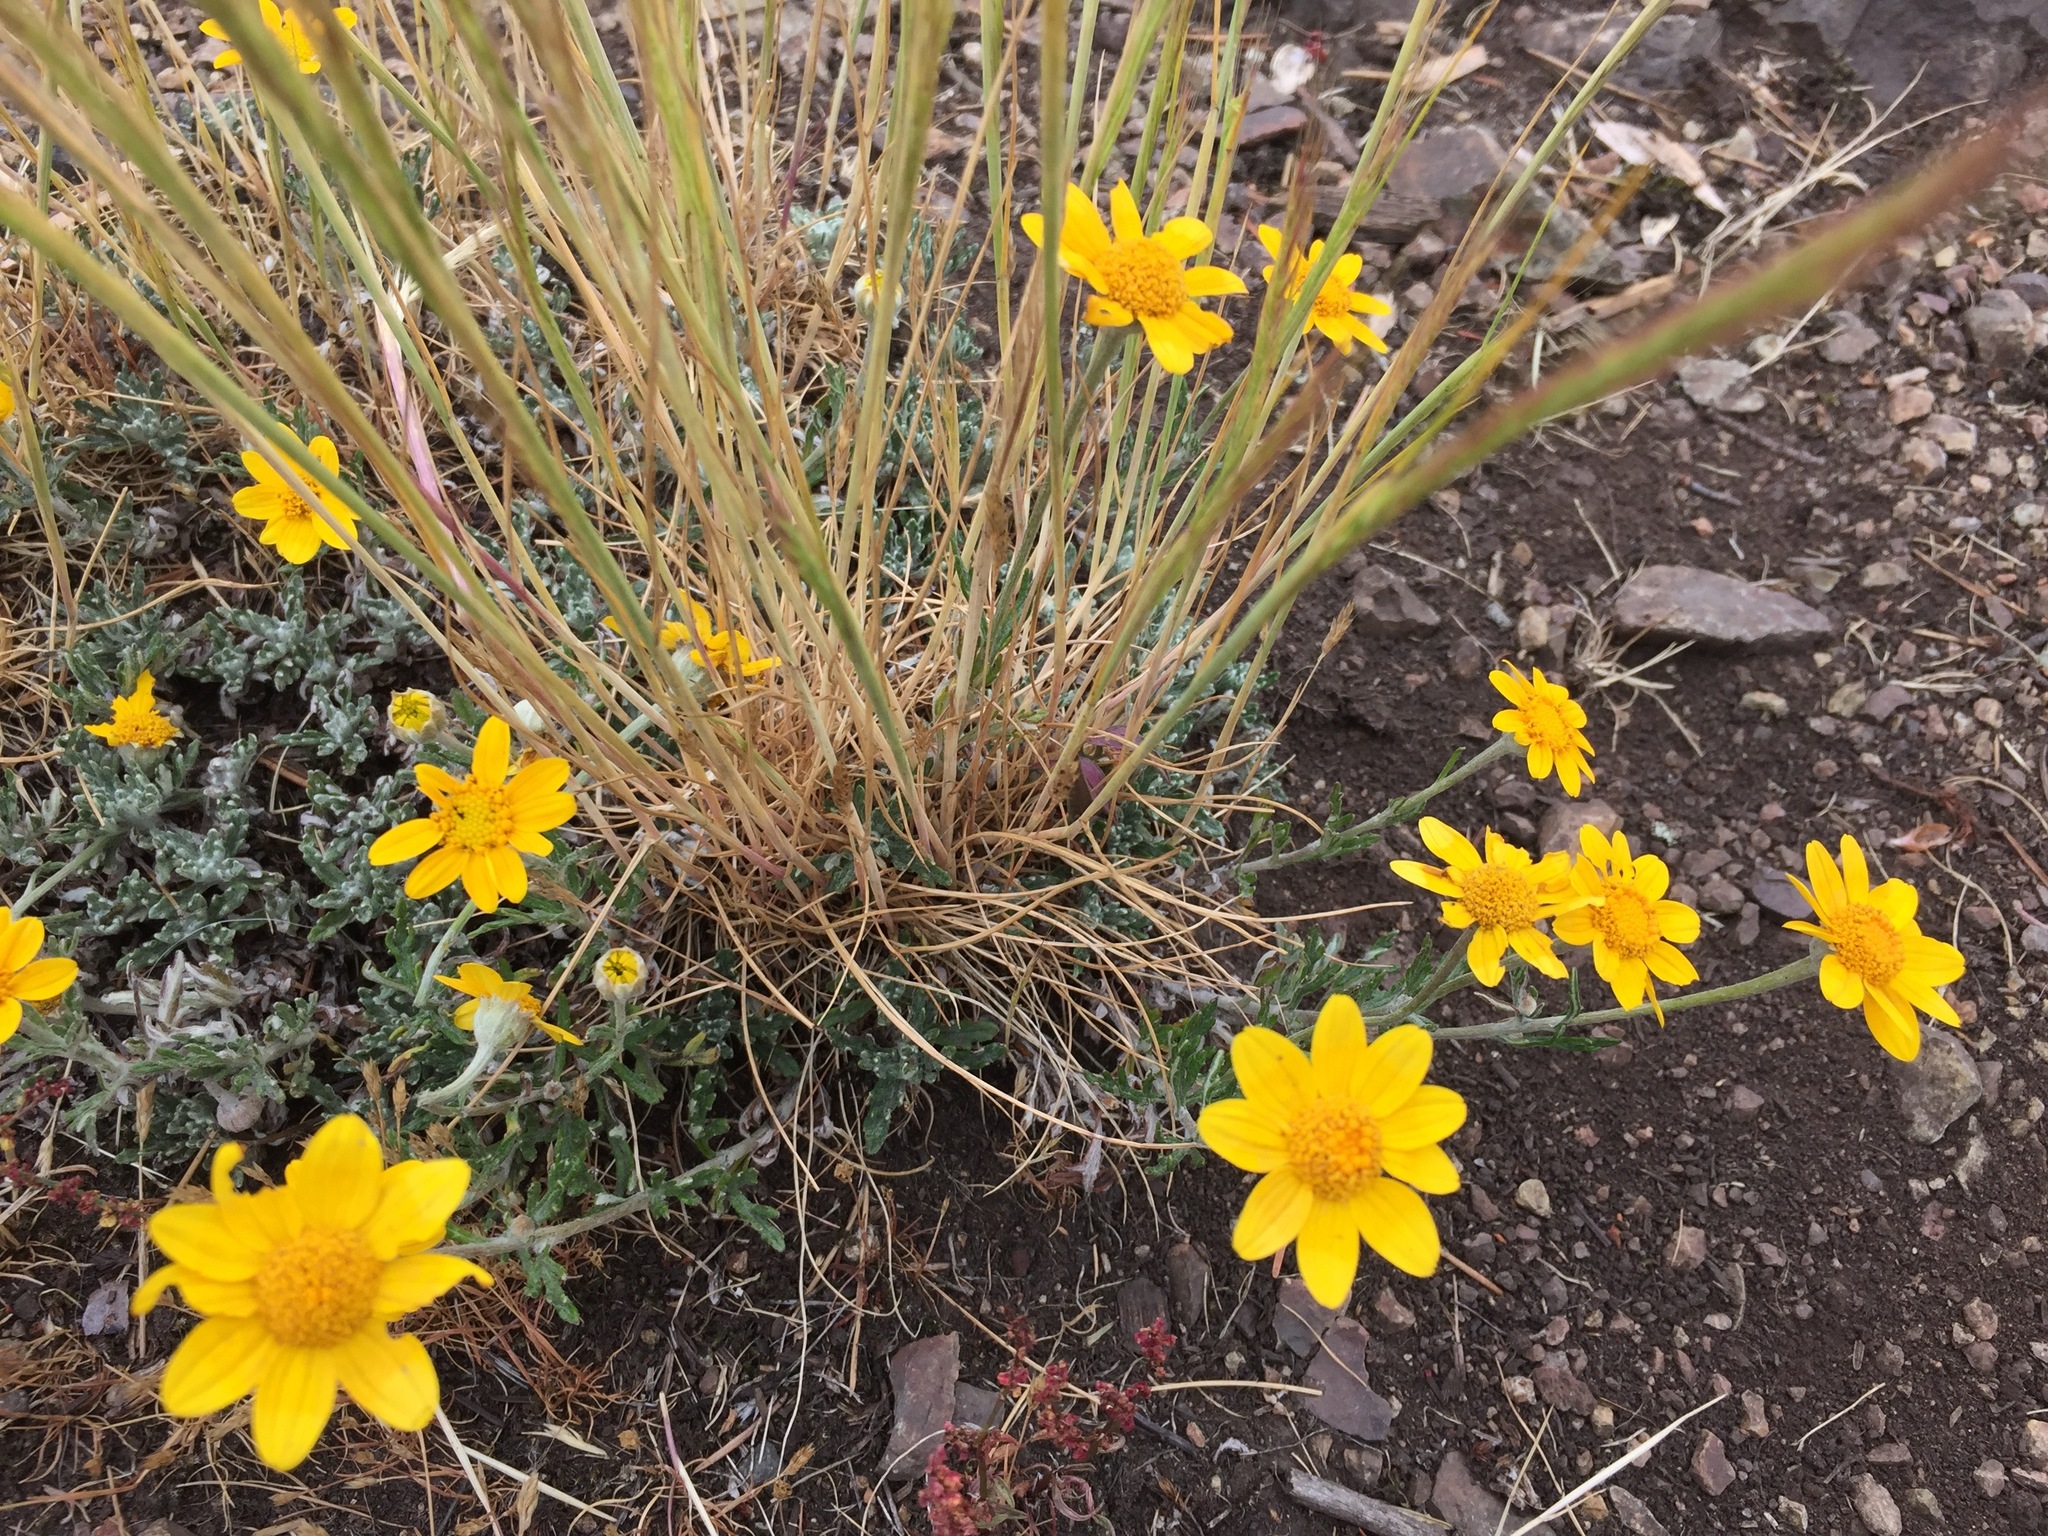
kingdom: Plantae
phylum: Tracheophyta
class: Magnoliopsida
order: Asterales
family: Asteraceae
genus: Eriophyllum
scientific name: Eriophyllum lanatum
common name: Common woolly-sunflower
